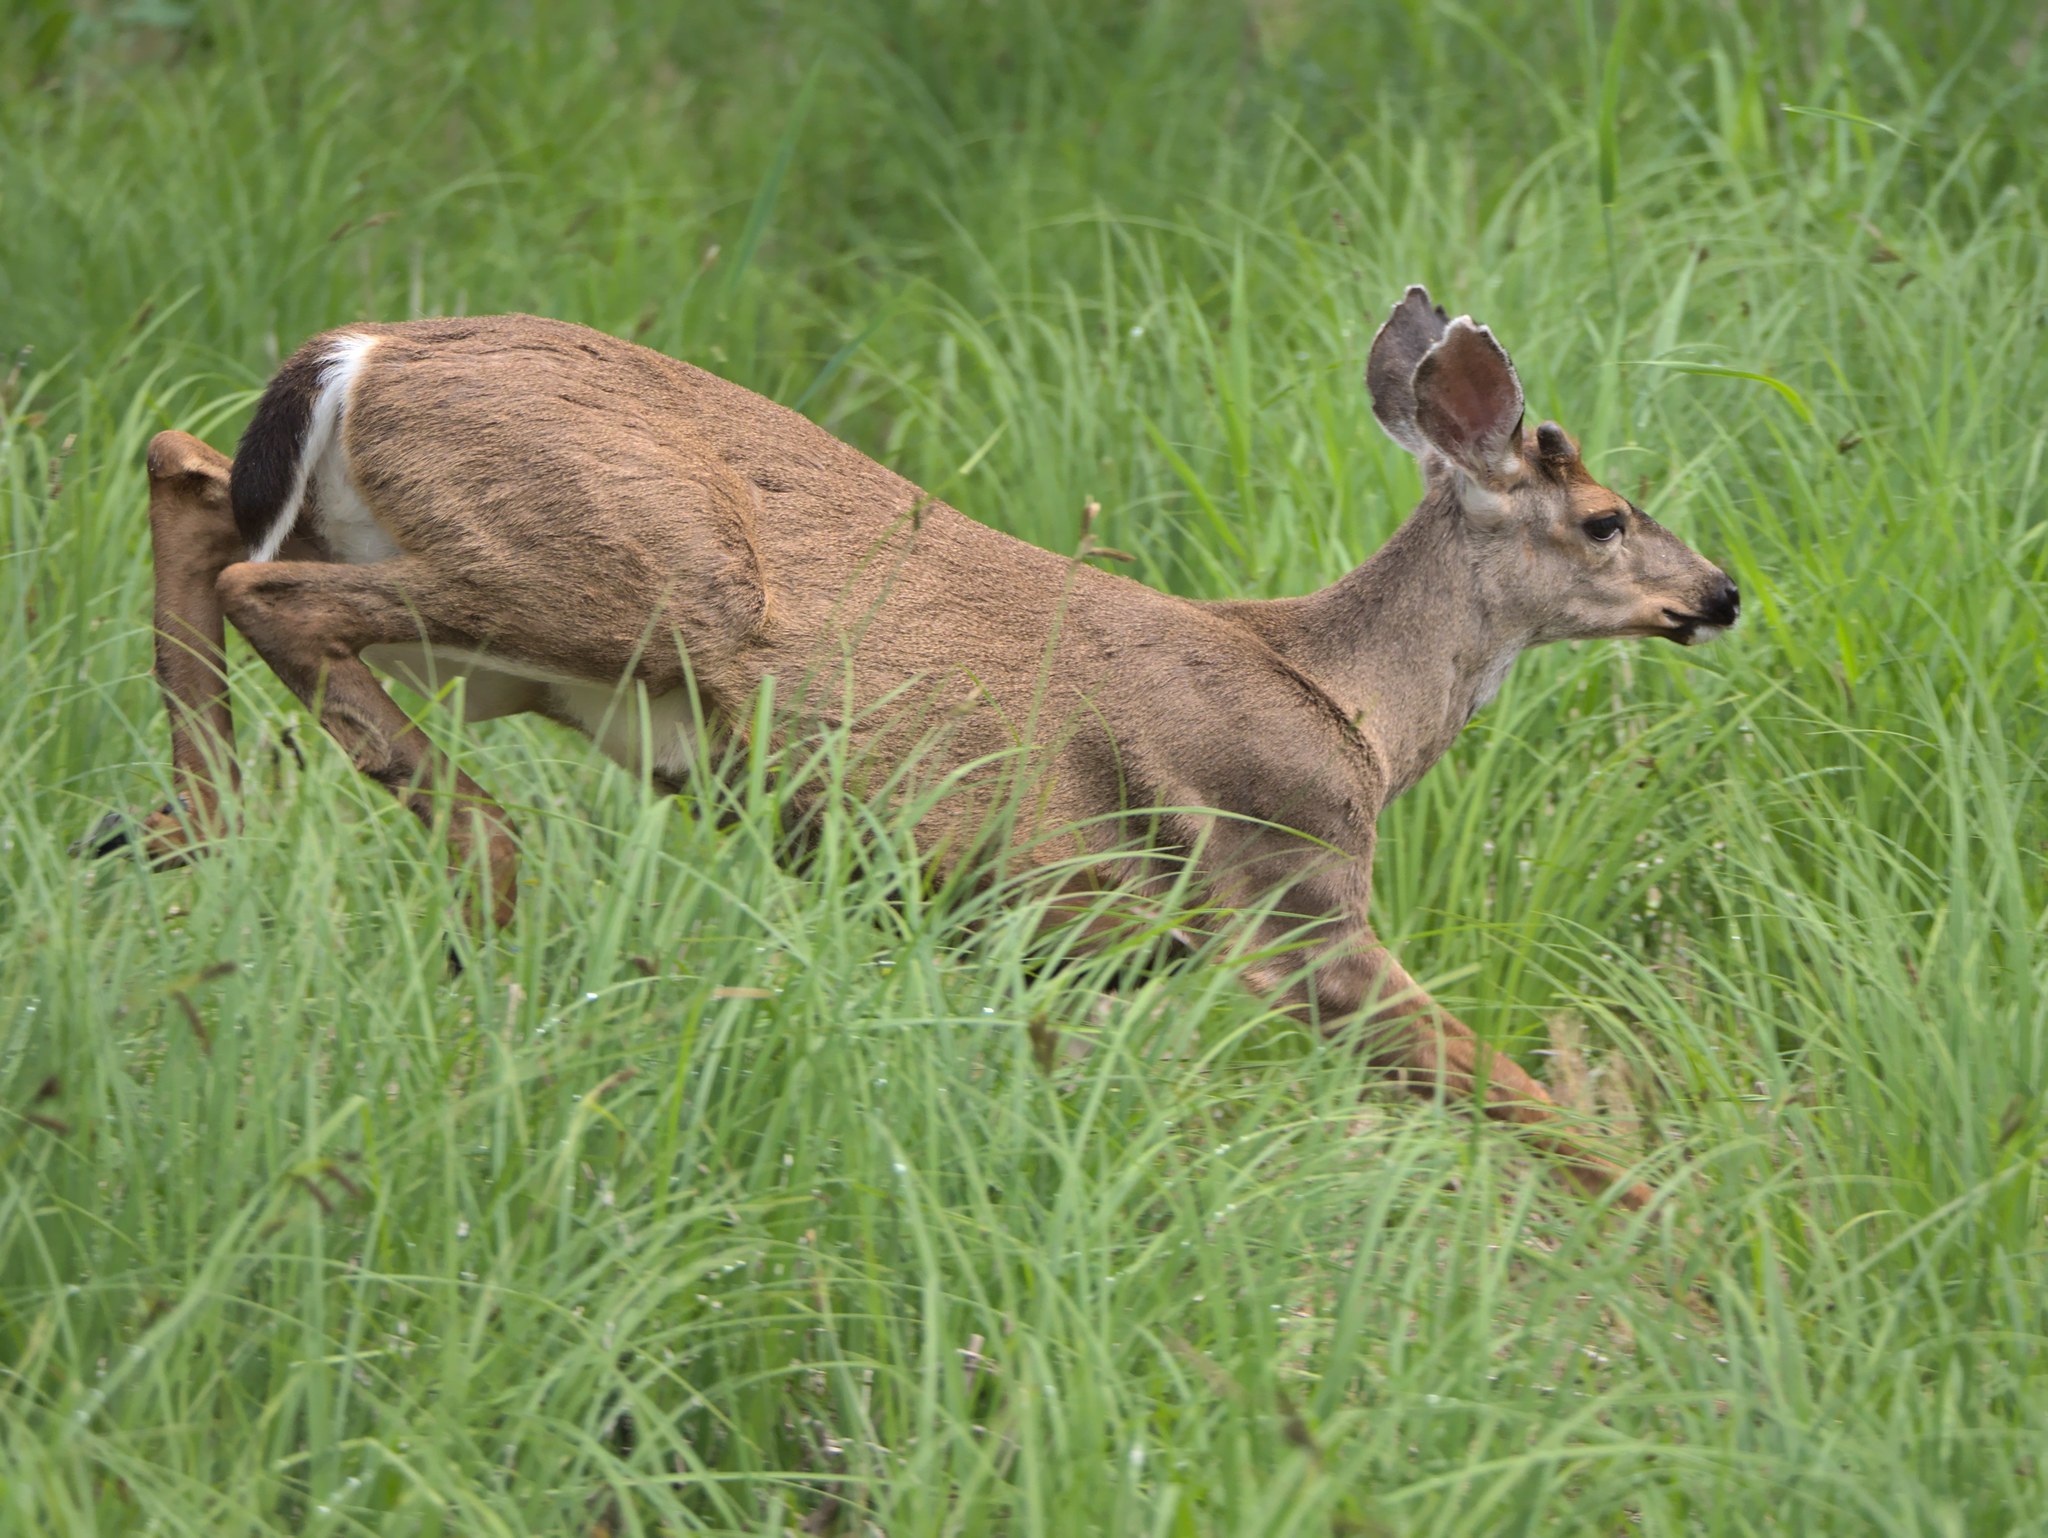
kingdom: Animalia
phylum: Chordata
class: Mammalia
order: Artiodactyla
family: Cervidae
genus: Odocoileus
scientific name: Odocoileus hemionus
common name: Mule deer
